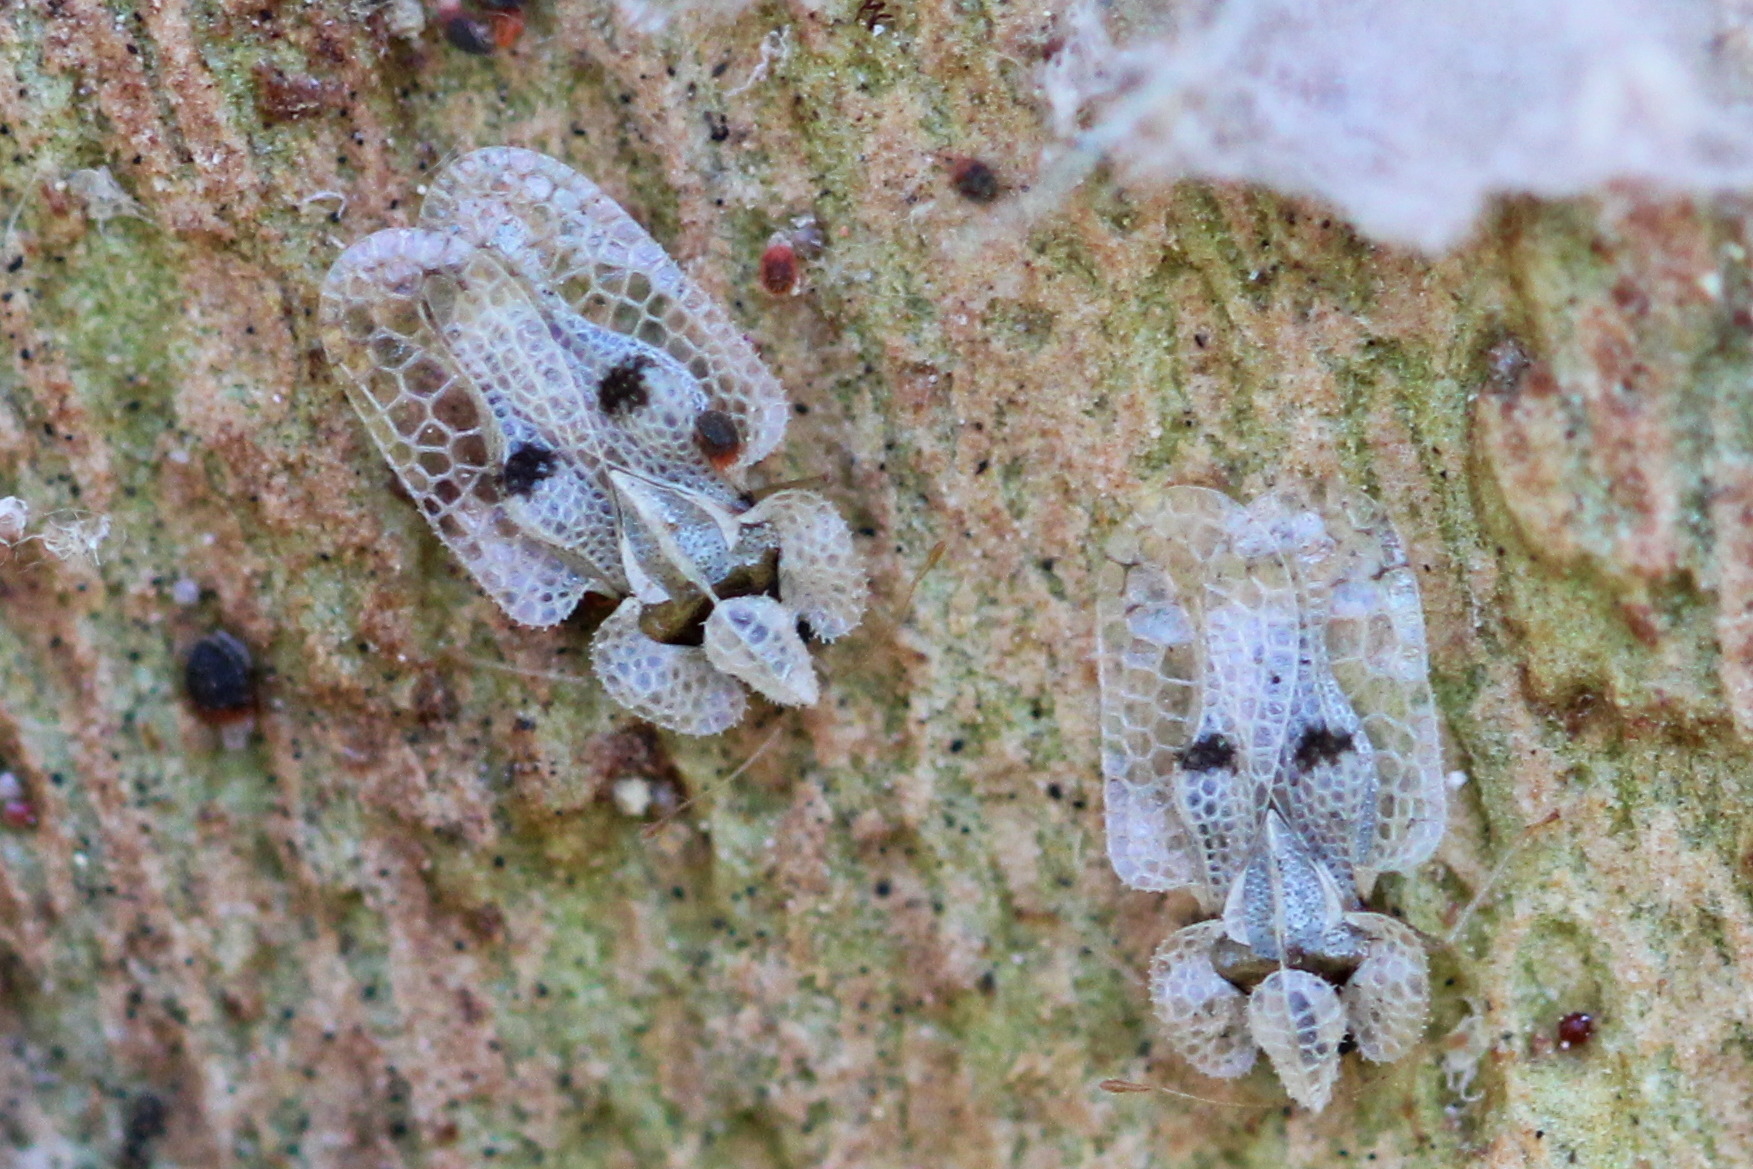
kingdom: Animalia
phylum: Arthropoda
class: Insecta
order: Hemiptera
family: Tingidae
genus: Corythucha
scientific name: Corythucha ciliata
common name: Sycamore lace bug
